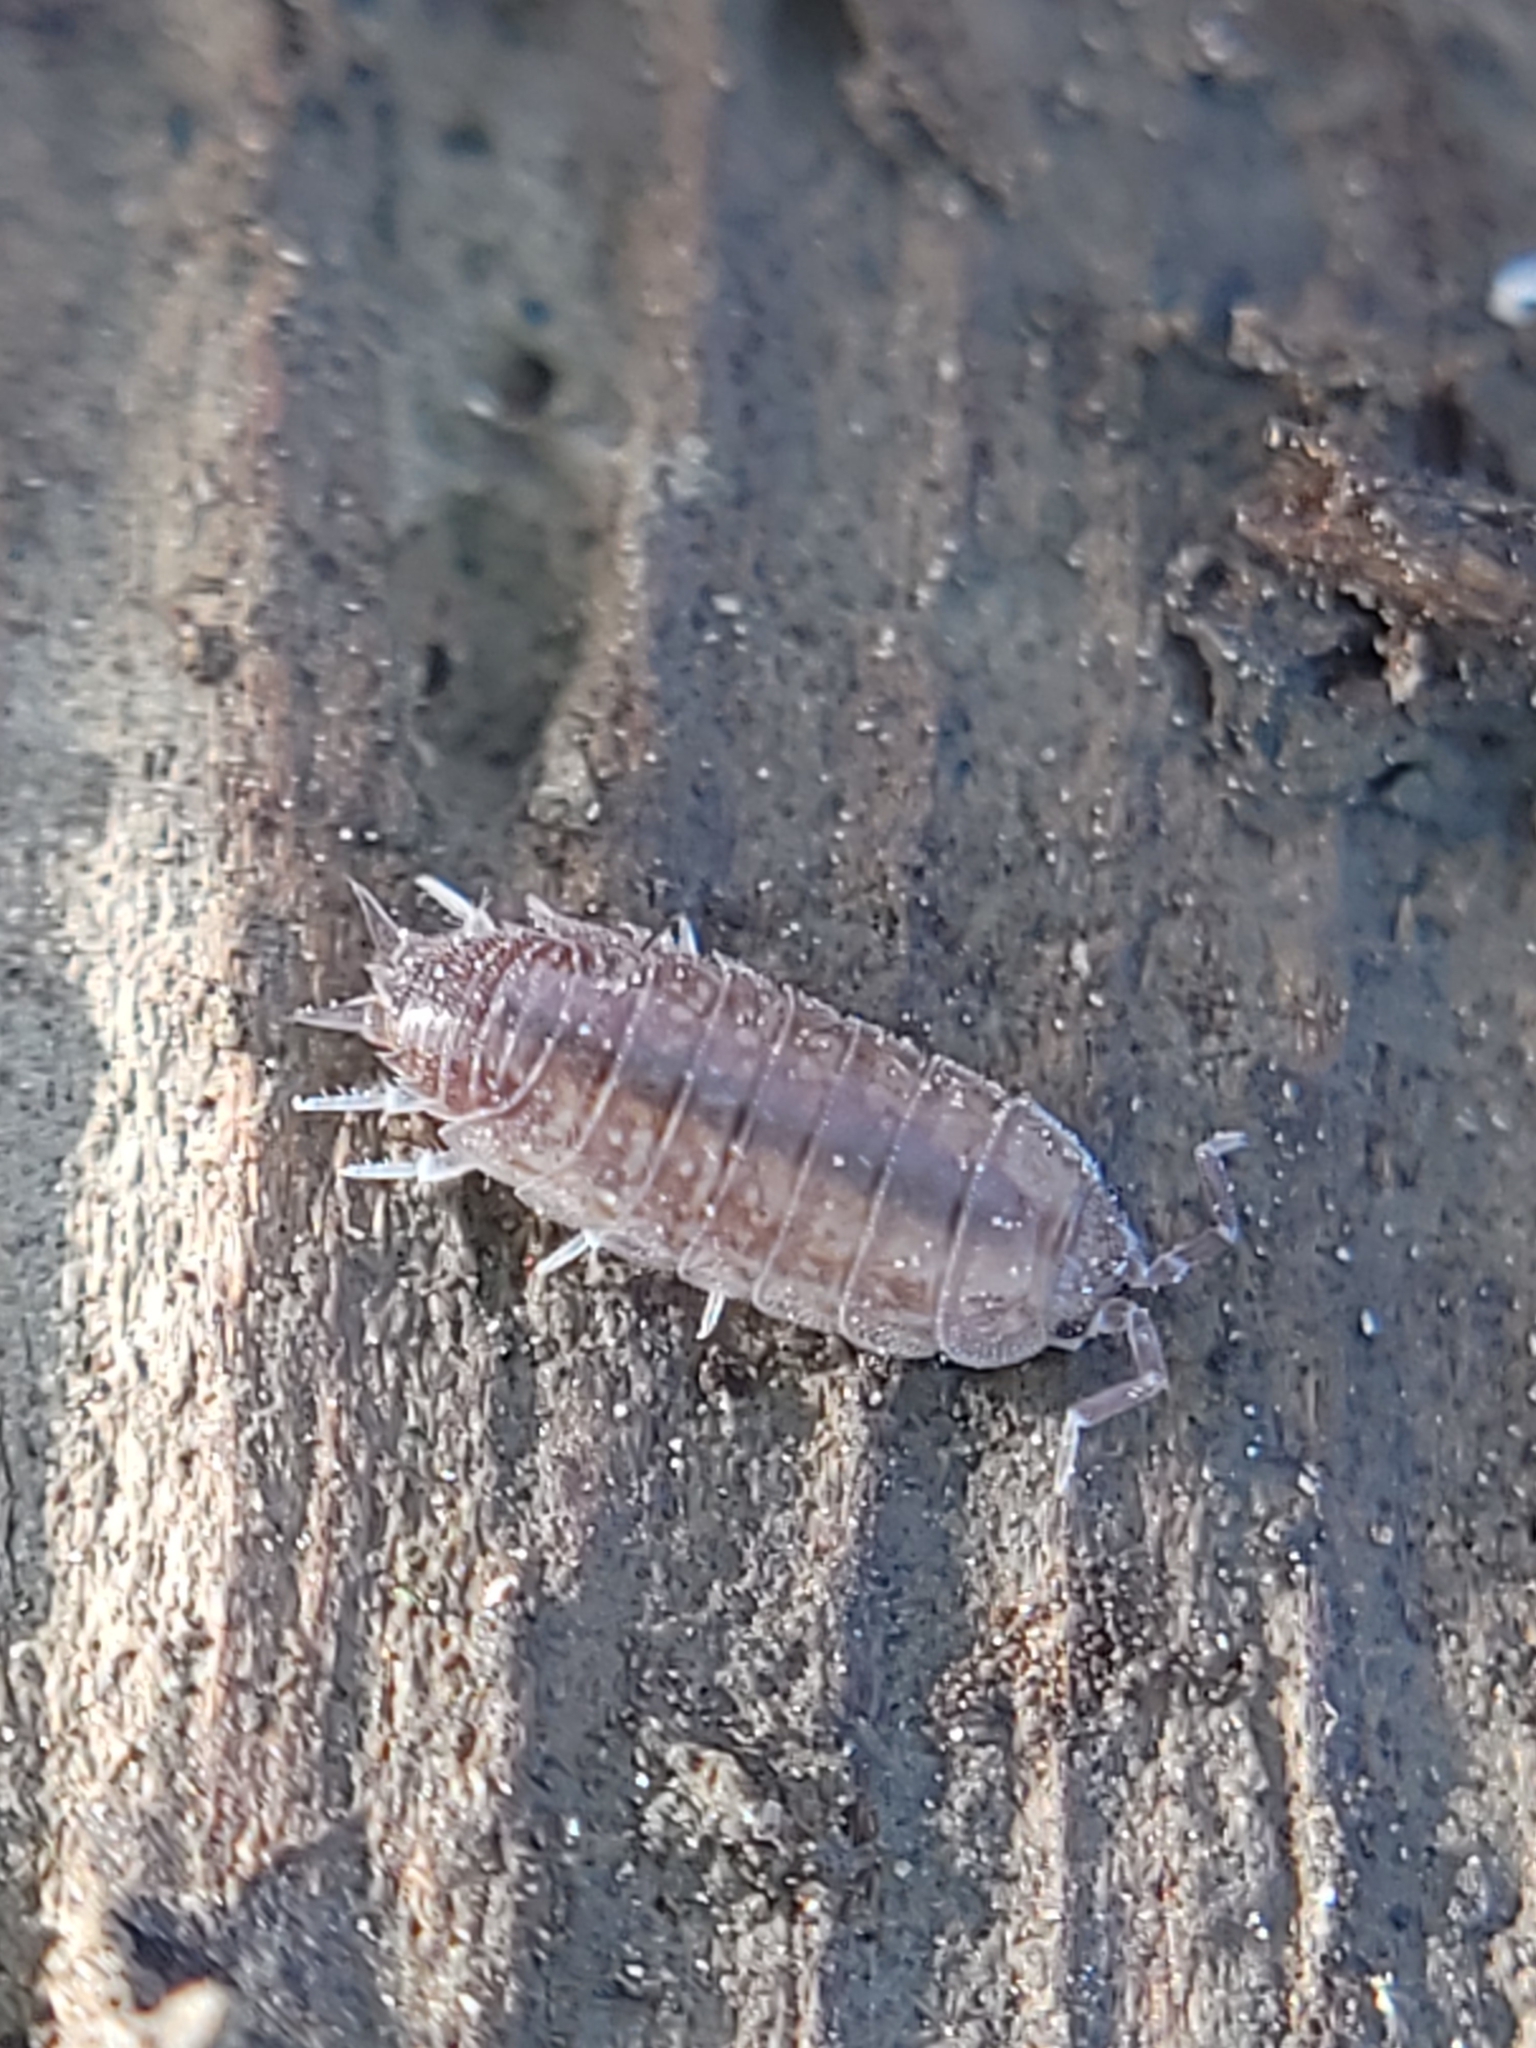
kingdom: Animalia
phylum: Arthropoda
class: Malacostraca
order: Isopoda
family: Platyarthridae
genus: Niambia
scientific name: Niambia capensis
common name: Isopod
